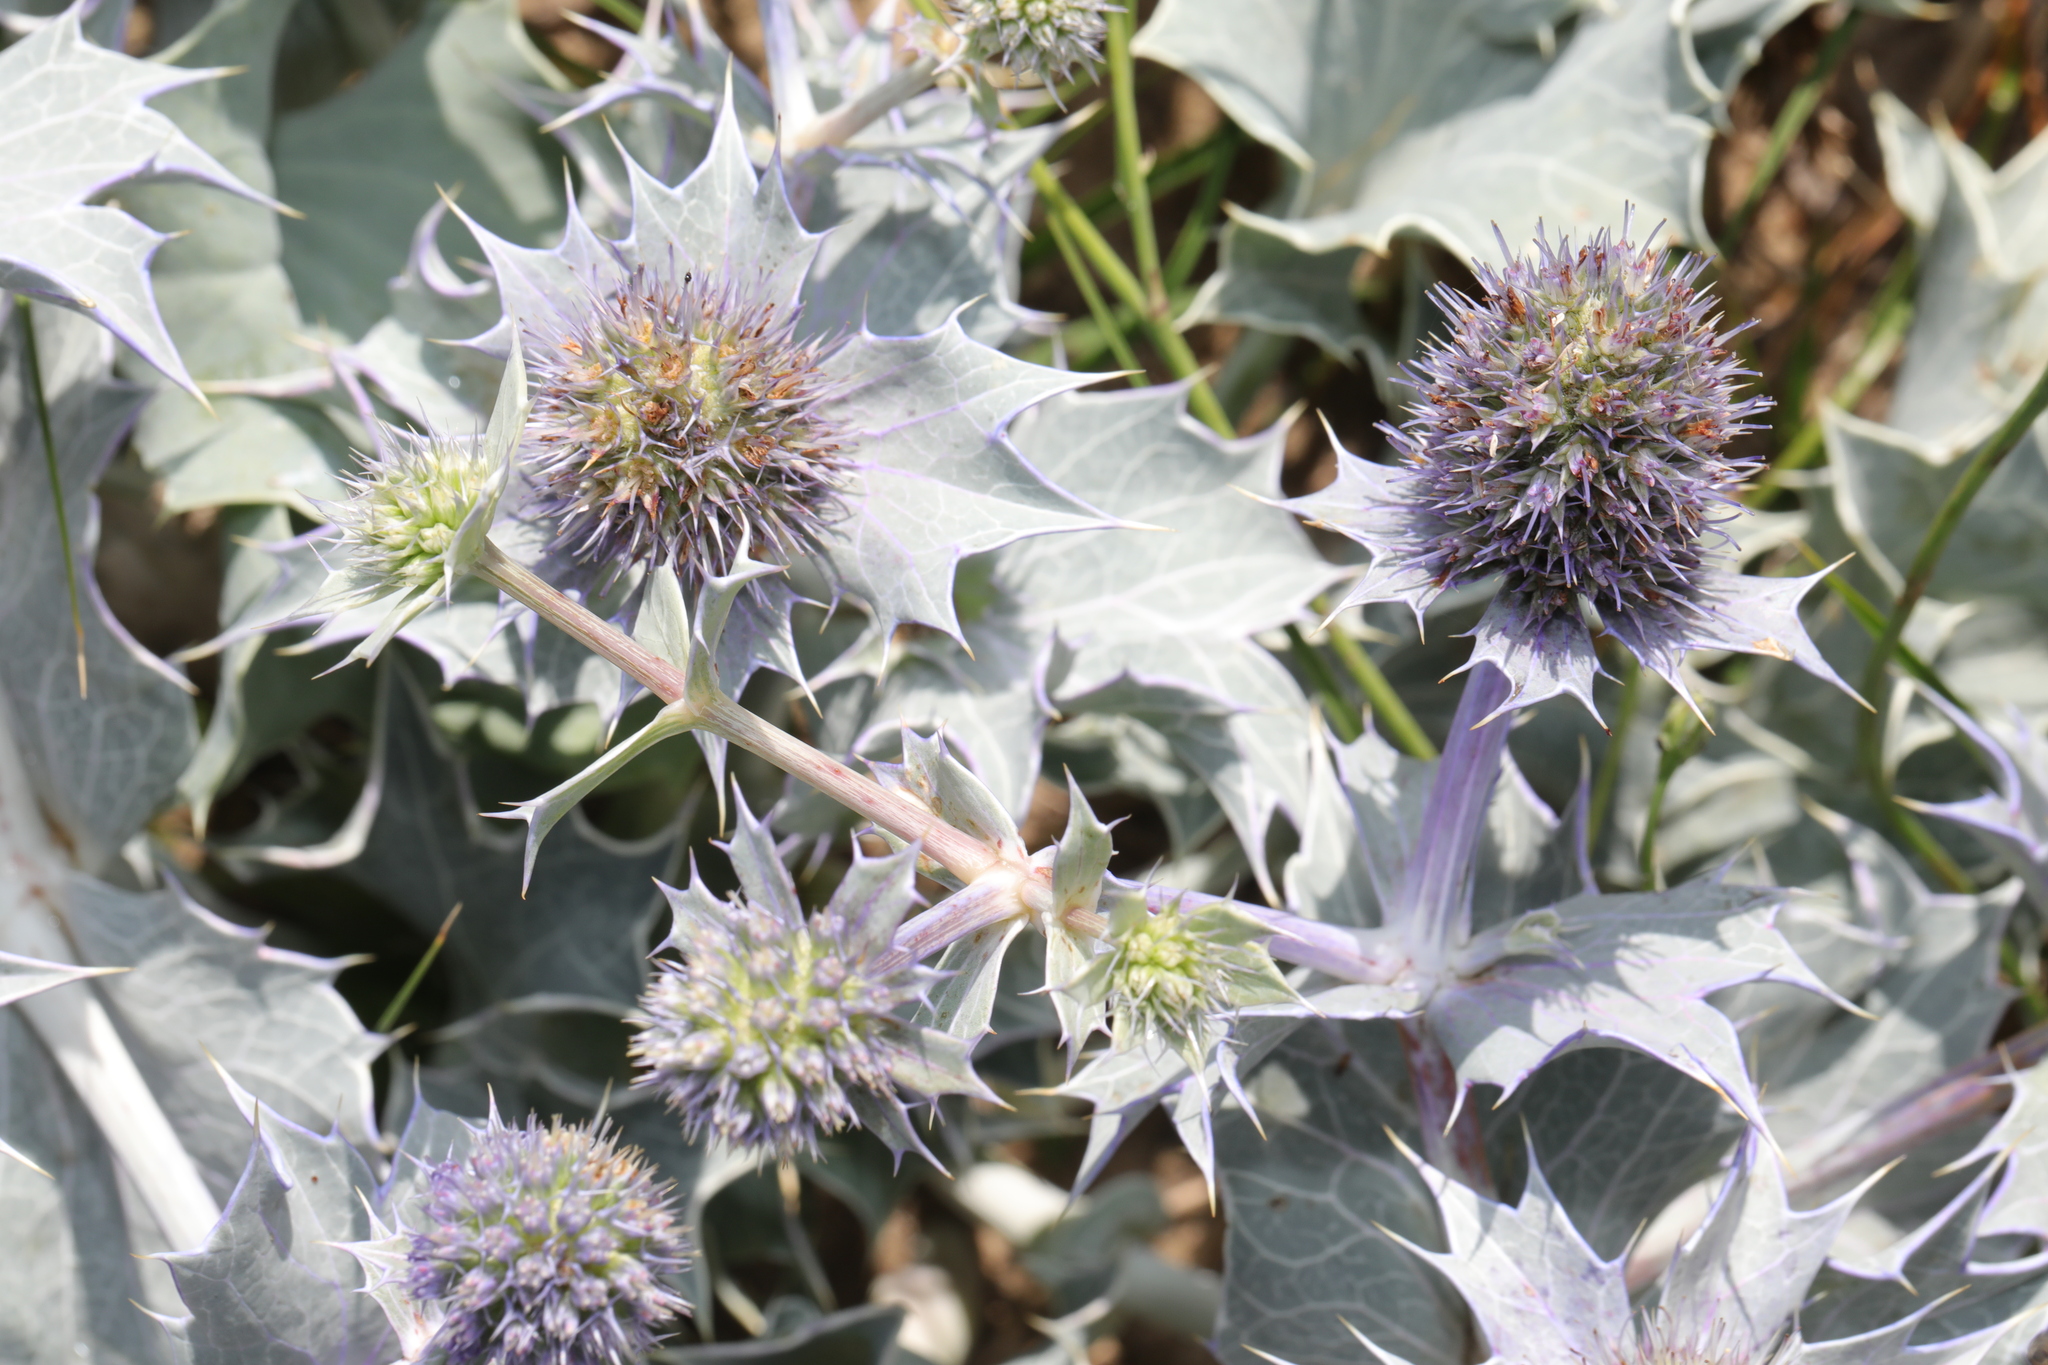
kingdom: Plantae
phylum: Tracheophyta
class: Magnoliopsida
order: Apiales
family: Apiaceae
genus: Eryngium
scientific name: Eryngium maritimum
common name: Sea-holly
